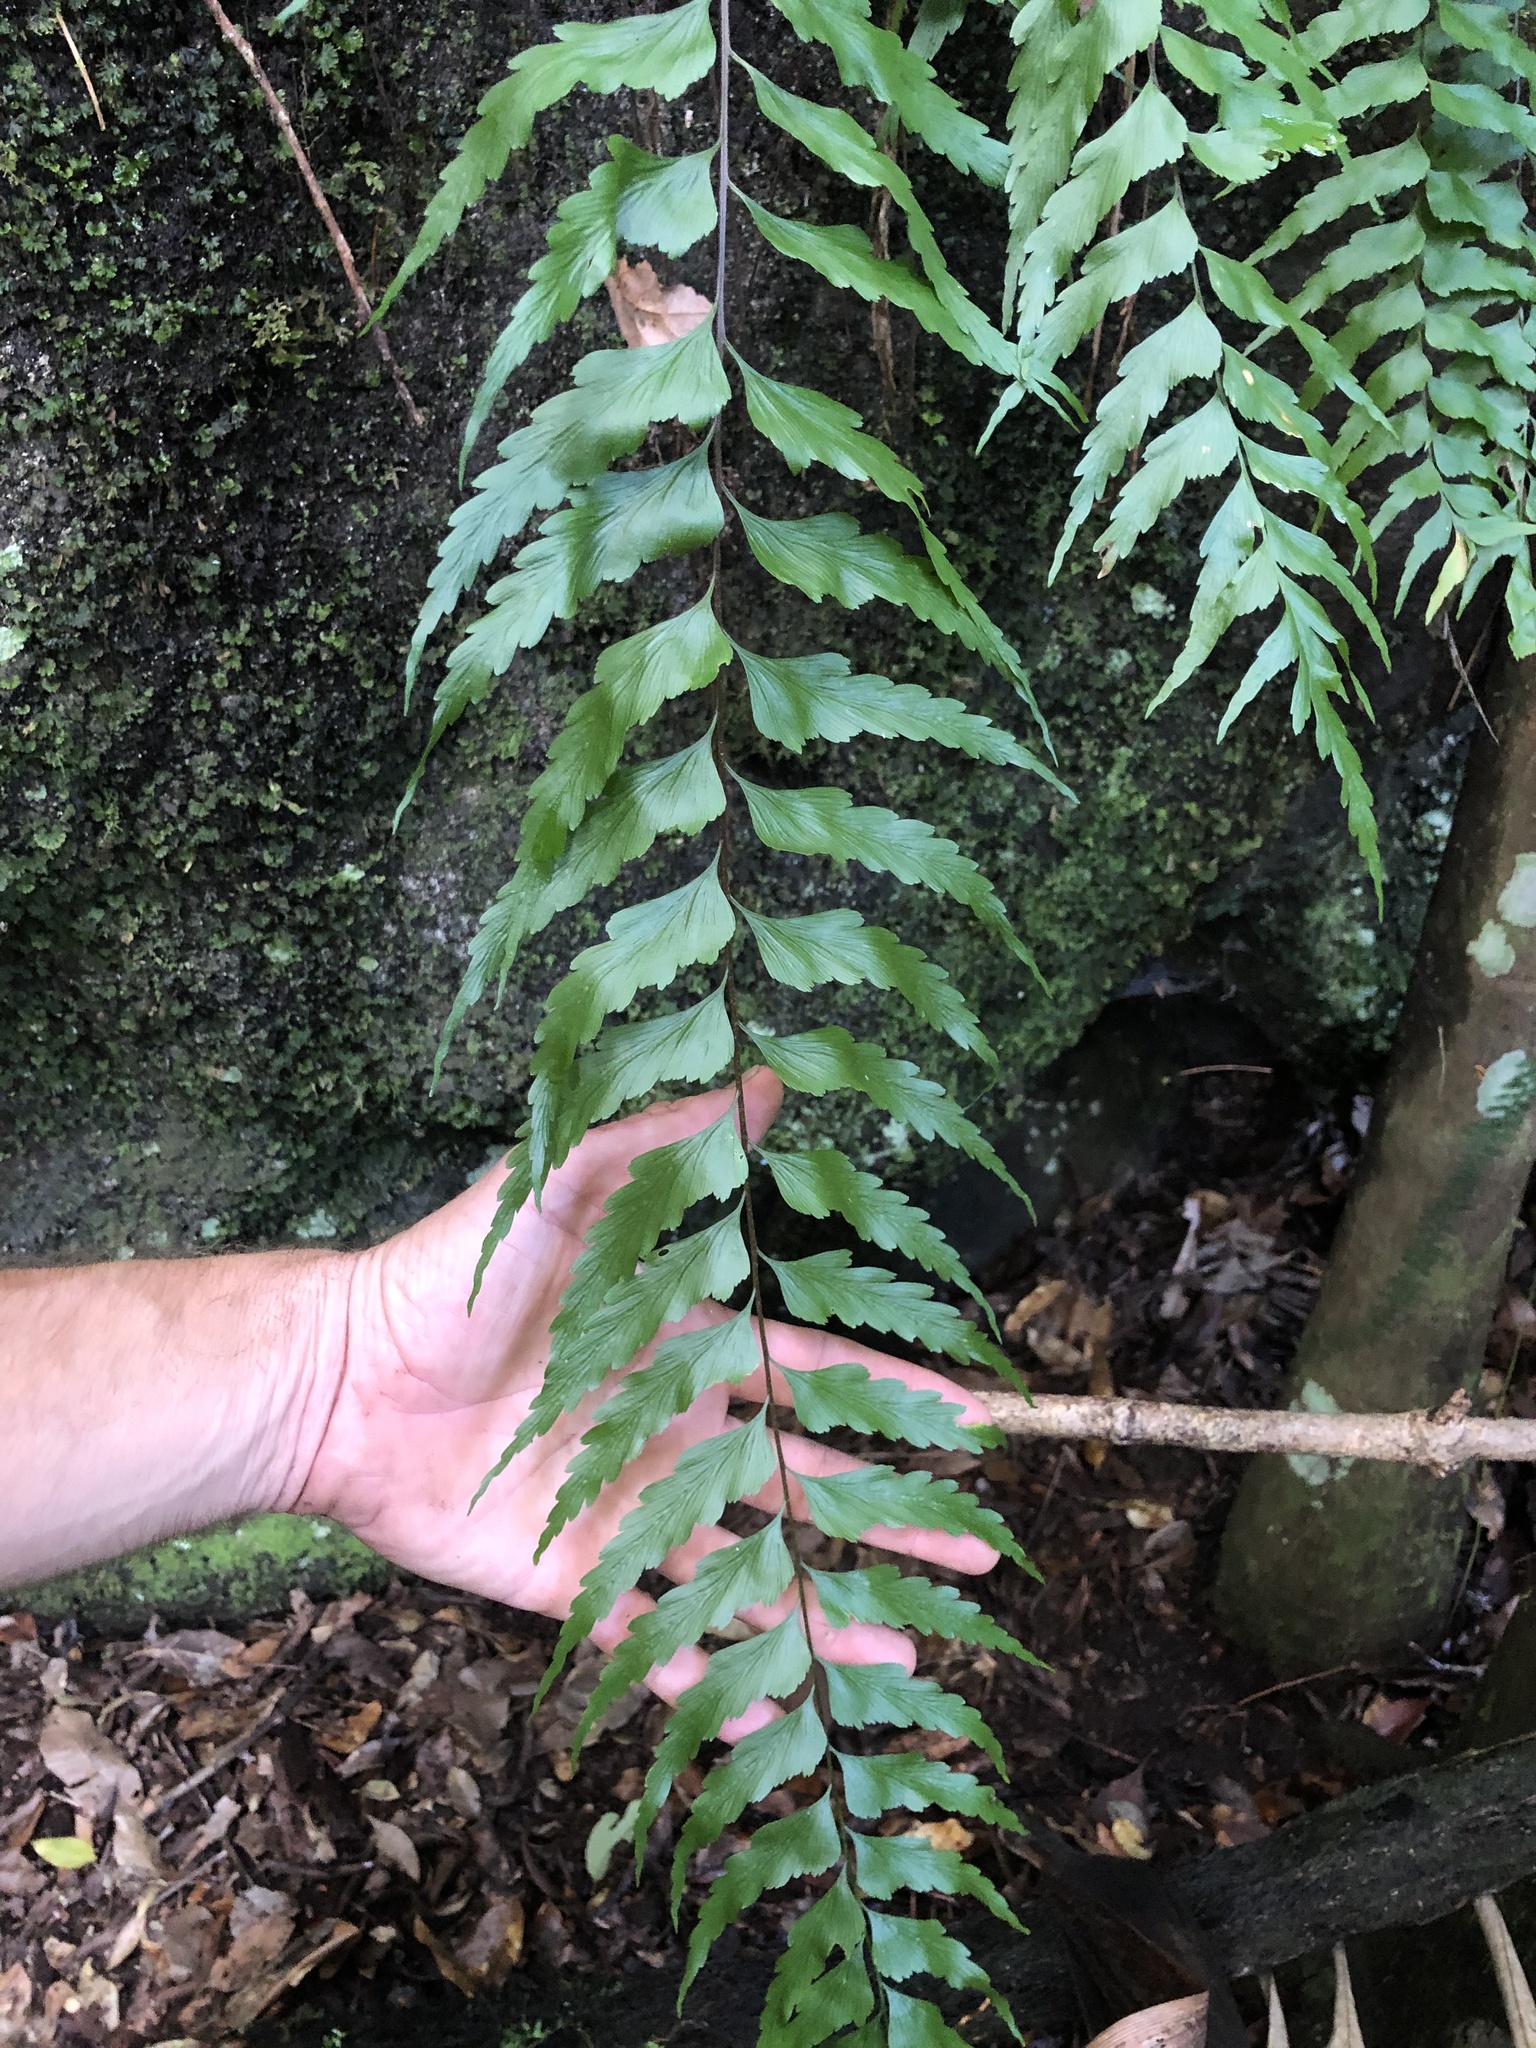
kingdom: Plantae
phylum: Tracheophyta
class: Polypodiopsida
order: Polypodiales
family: Aspleniaceae
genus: Asplenium
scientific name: Asplenium polyodon
